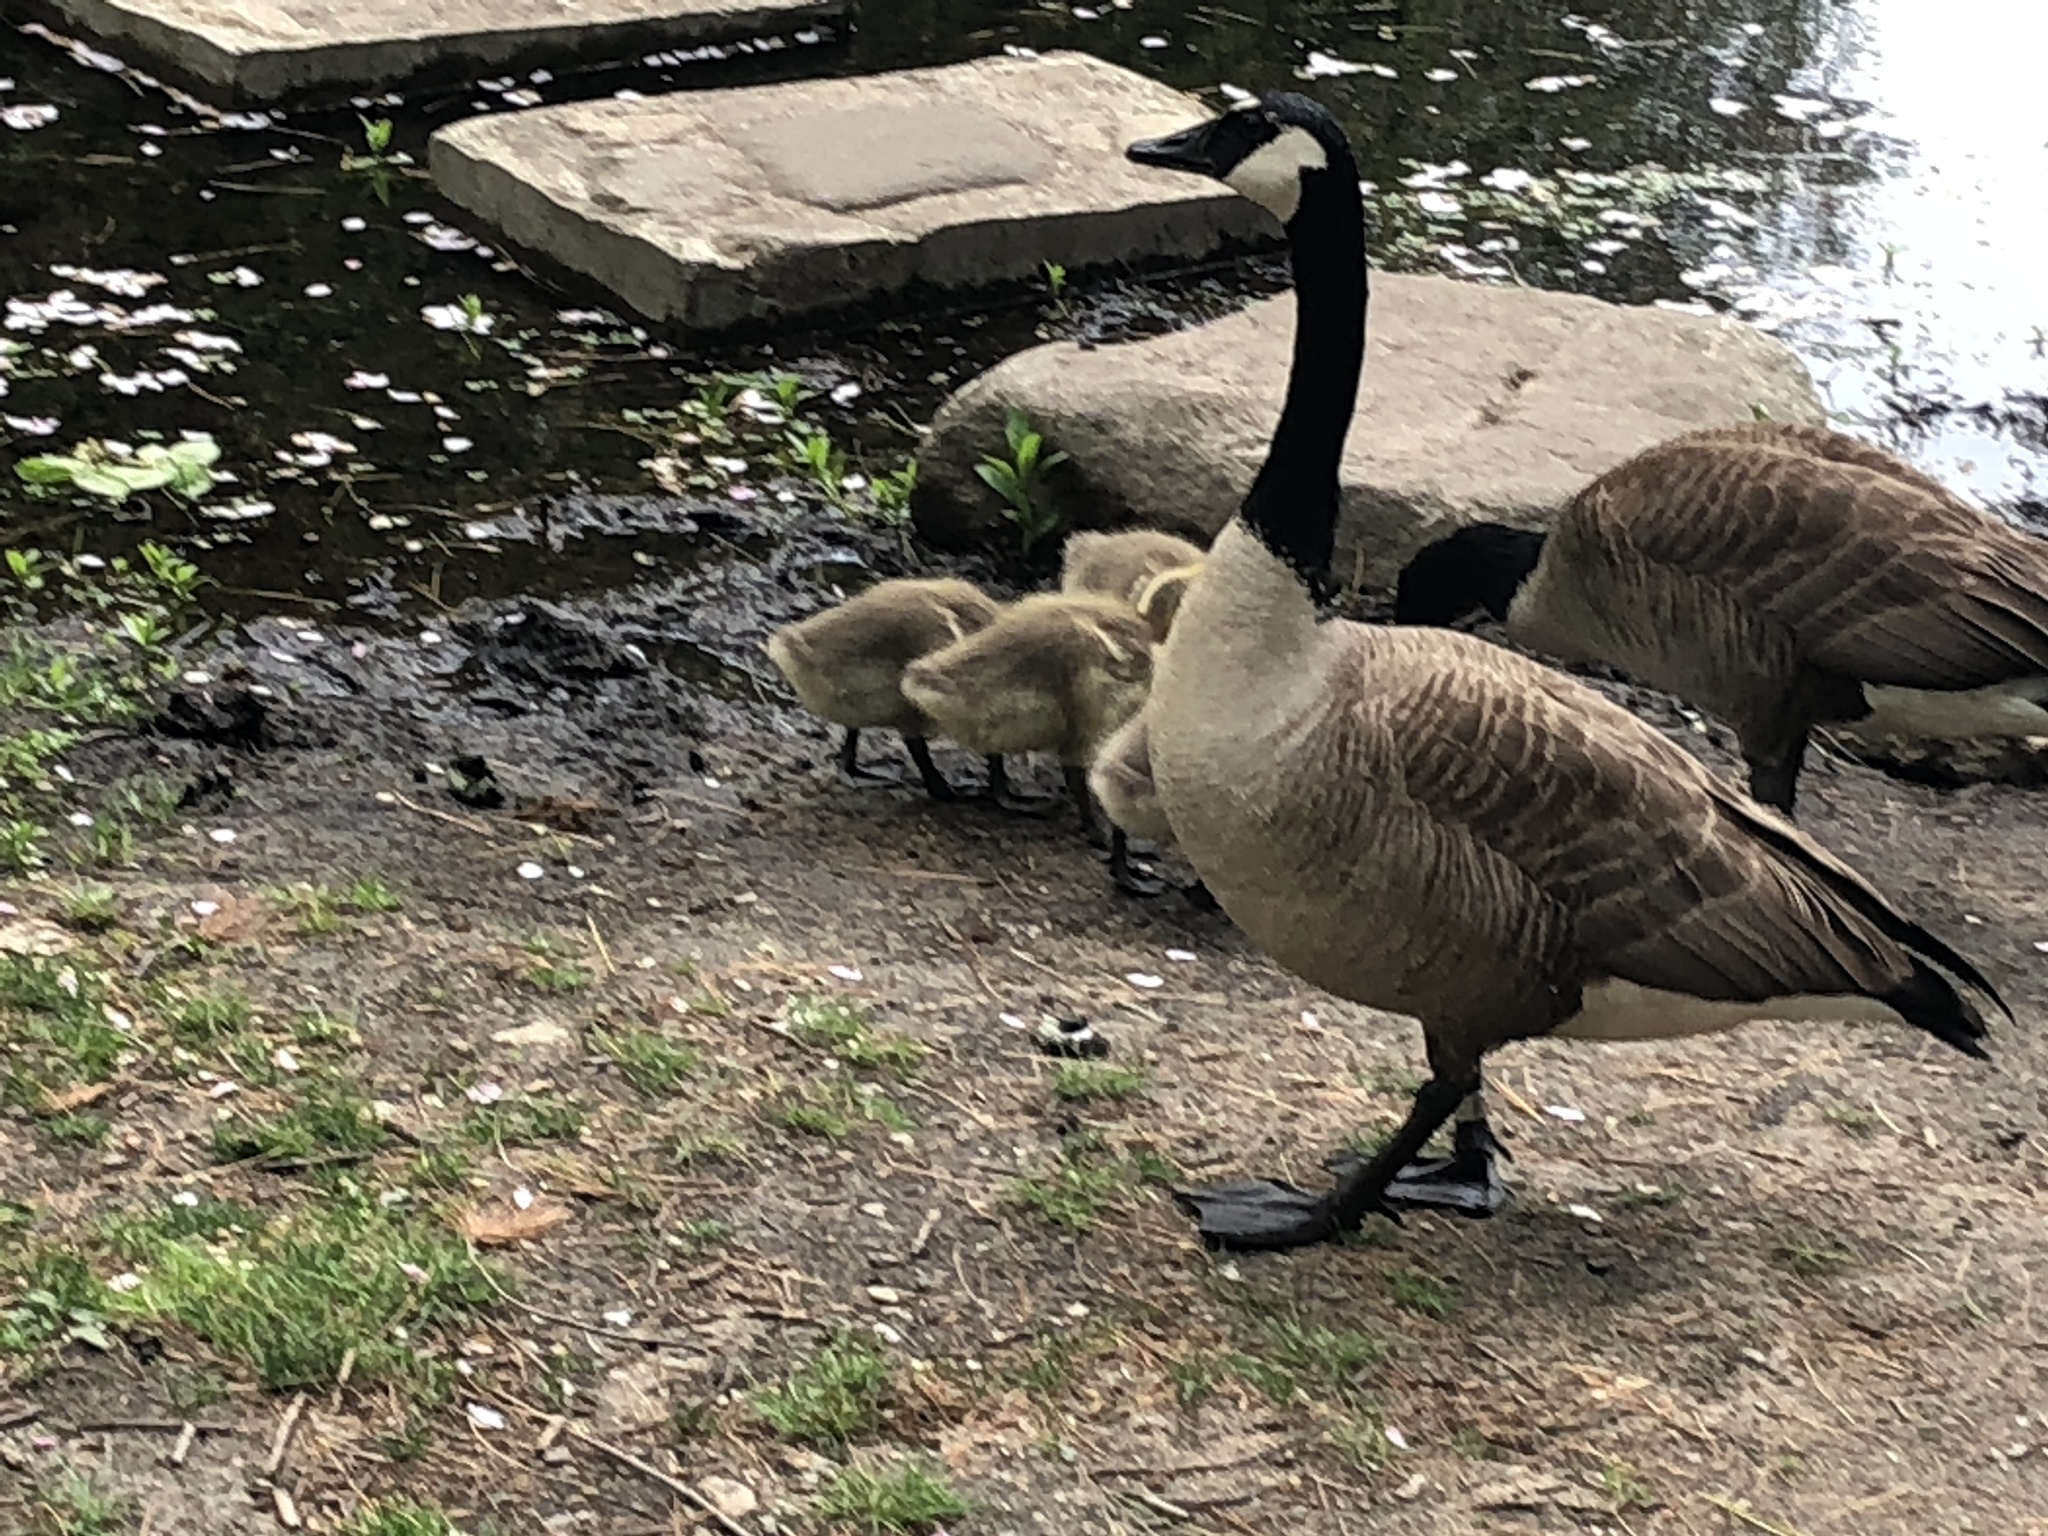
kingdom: Animalia
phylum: Chordata
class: Aves
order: Anseriformes
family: Anatidae
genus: Branta
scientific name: Branta canadensis
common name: Canada goose
